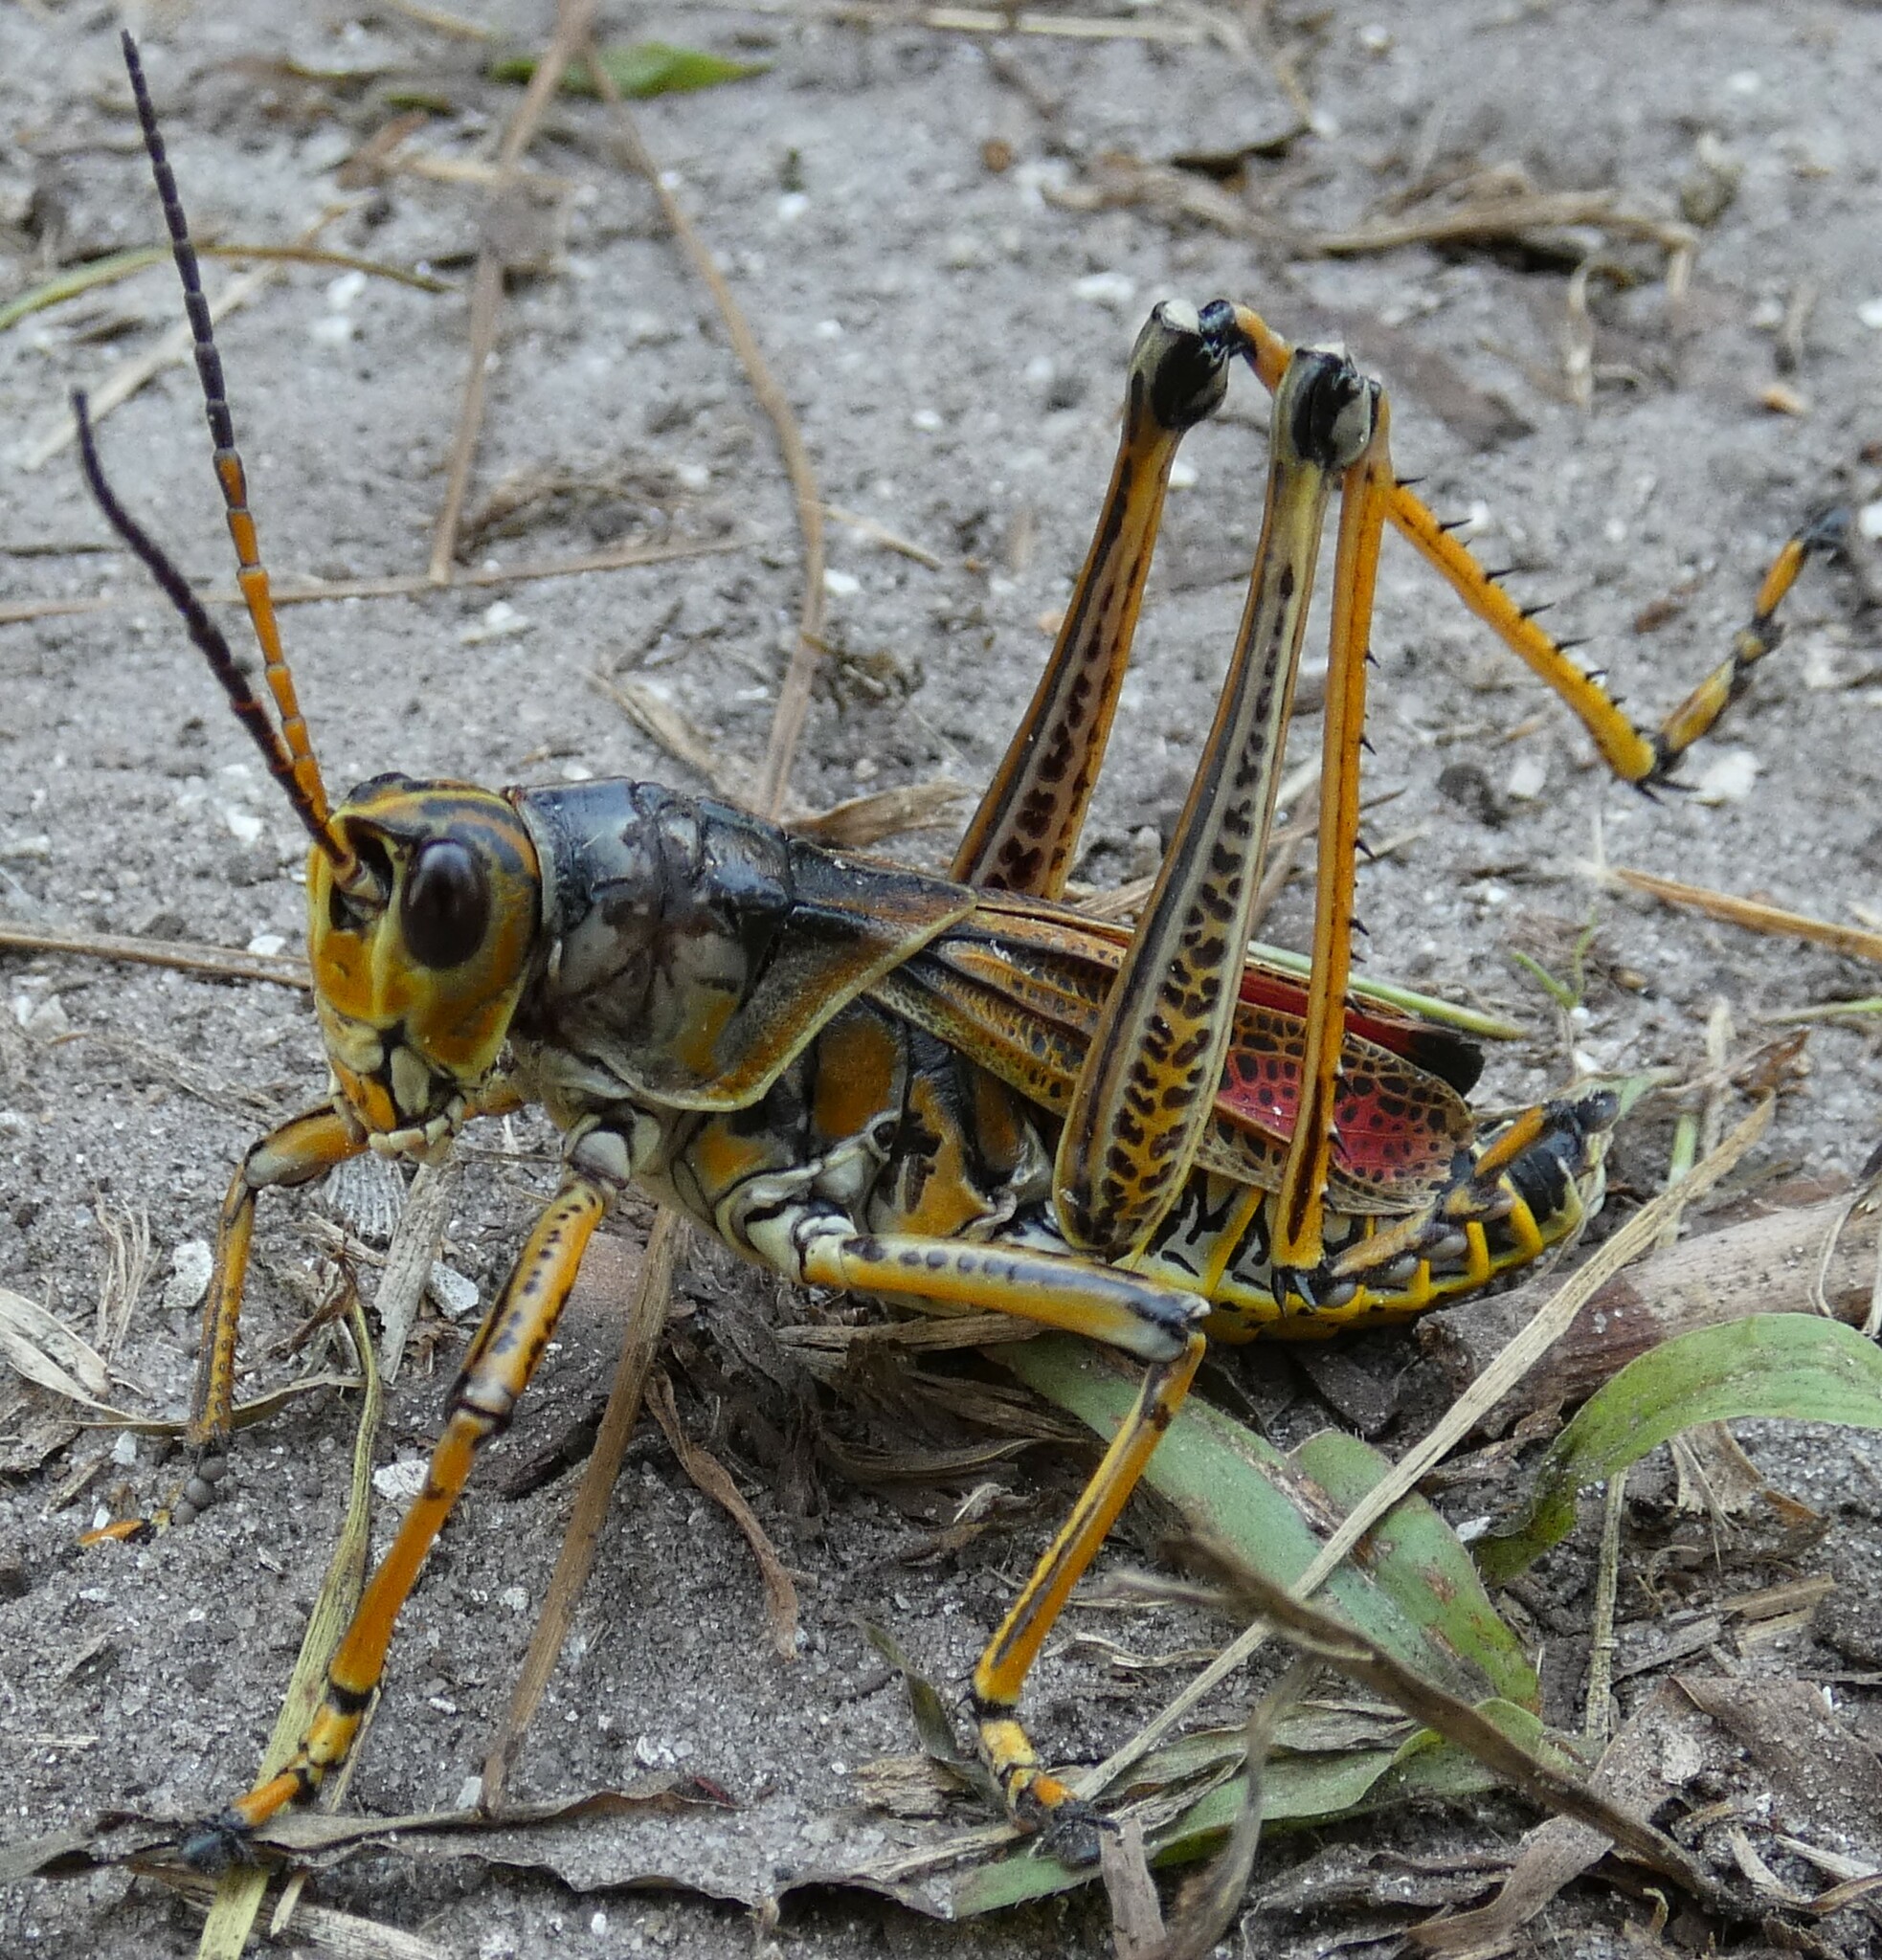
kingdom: Animalia
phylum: Arthropoda
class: Insecta
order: Orthoptera
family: Romaleidae
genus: Romalea
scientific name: Romalea microptera
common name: Eastern lubber grasshopper
